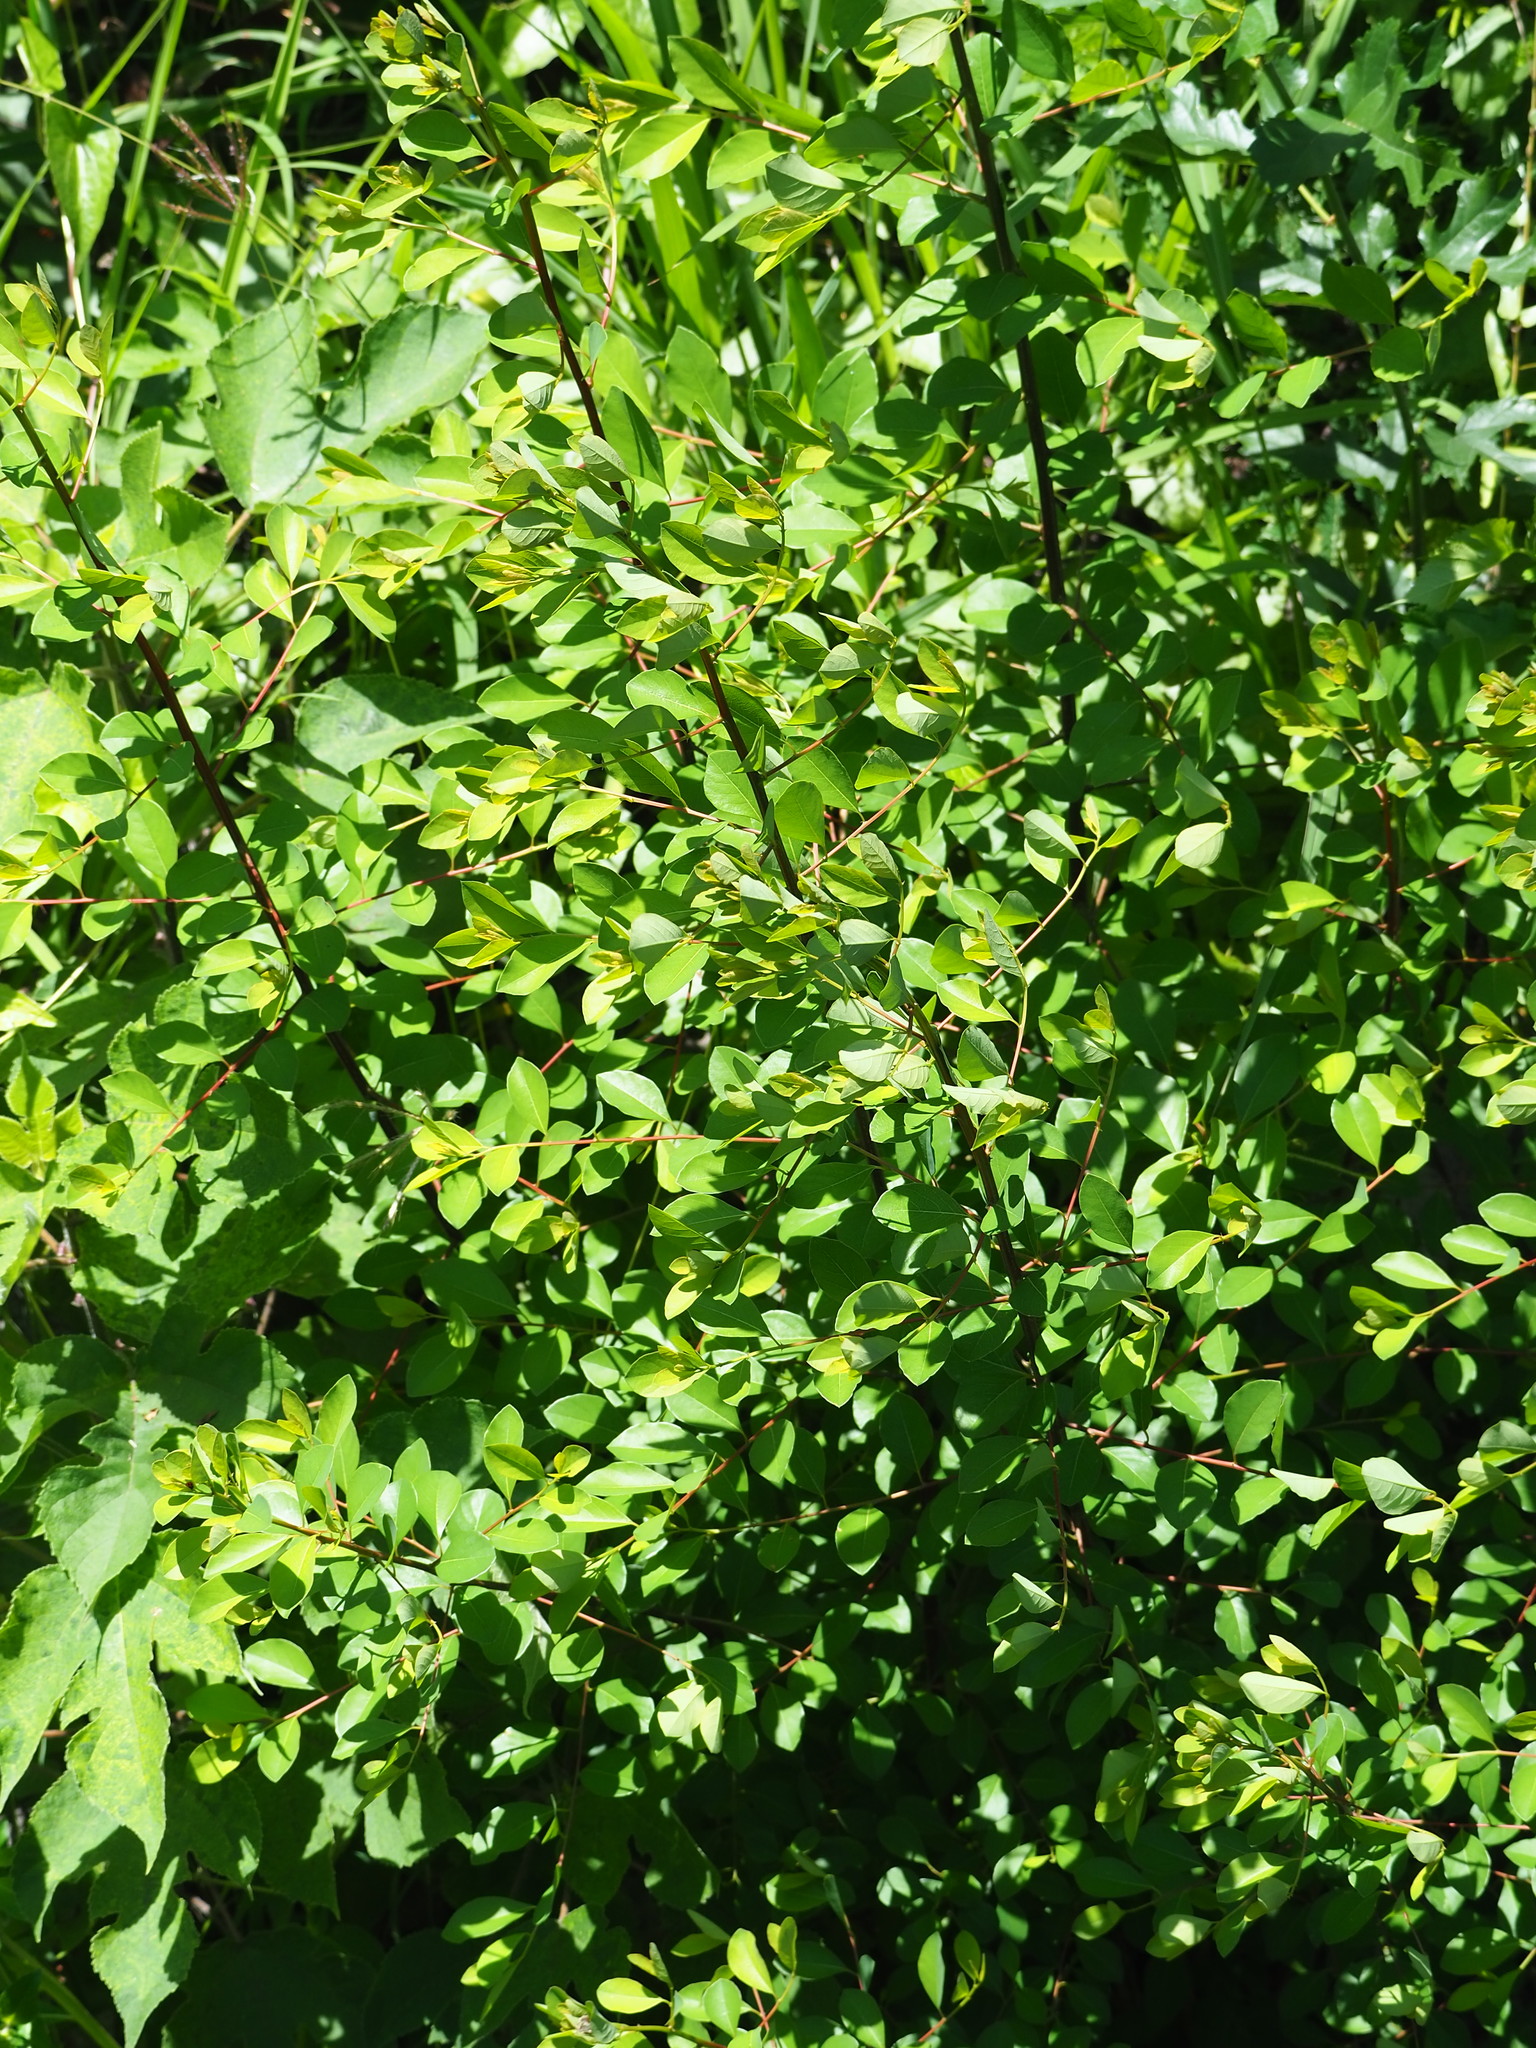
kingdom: Plantae
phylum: Tracheophyta
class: Magnoliopsida
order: Malpighiales
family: Phyllanthaceae
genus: Flueggea
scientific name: Flueggea virosa
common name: Common bushweed
